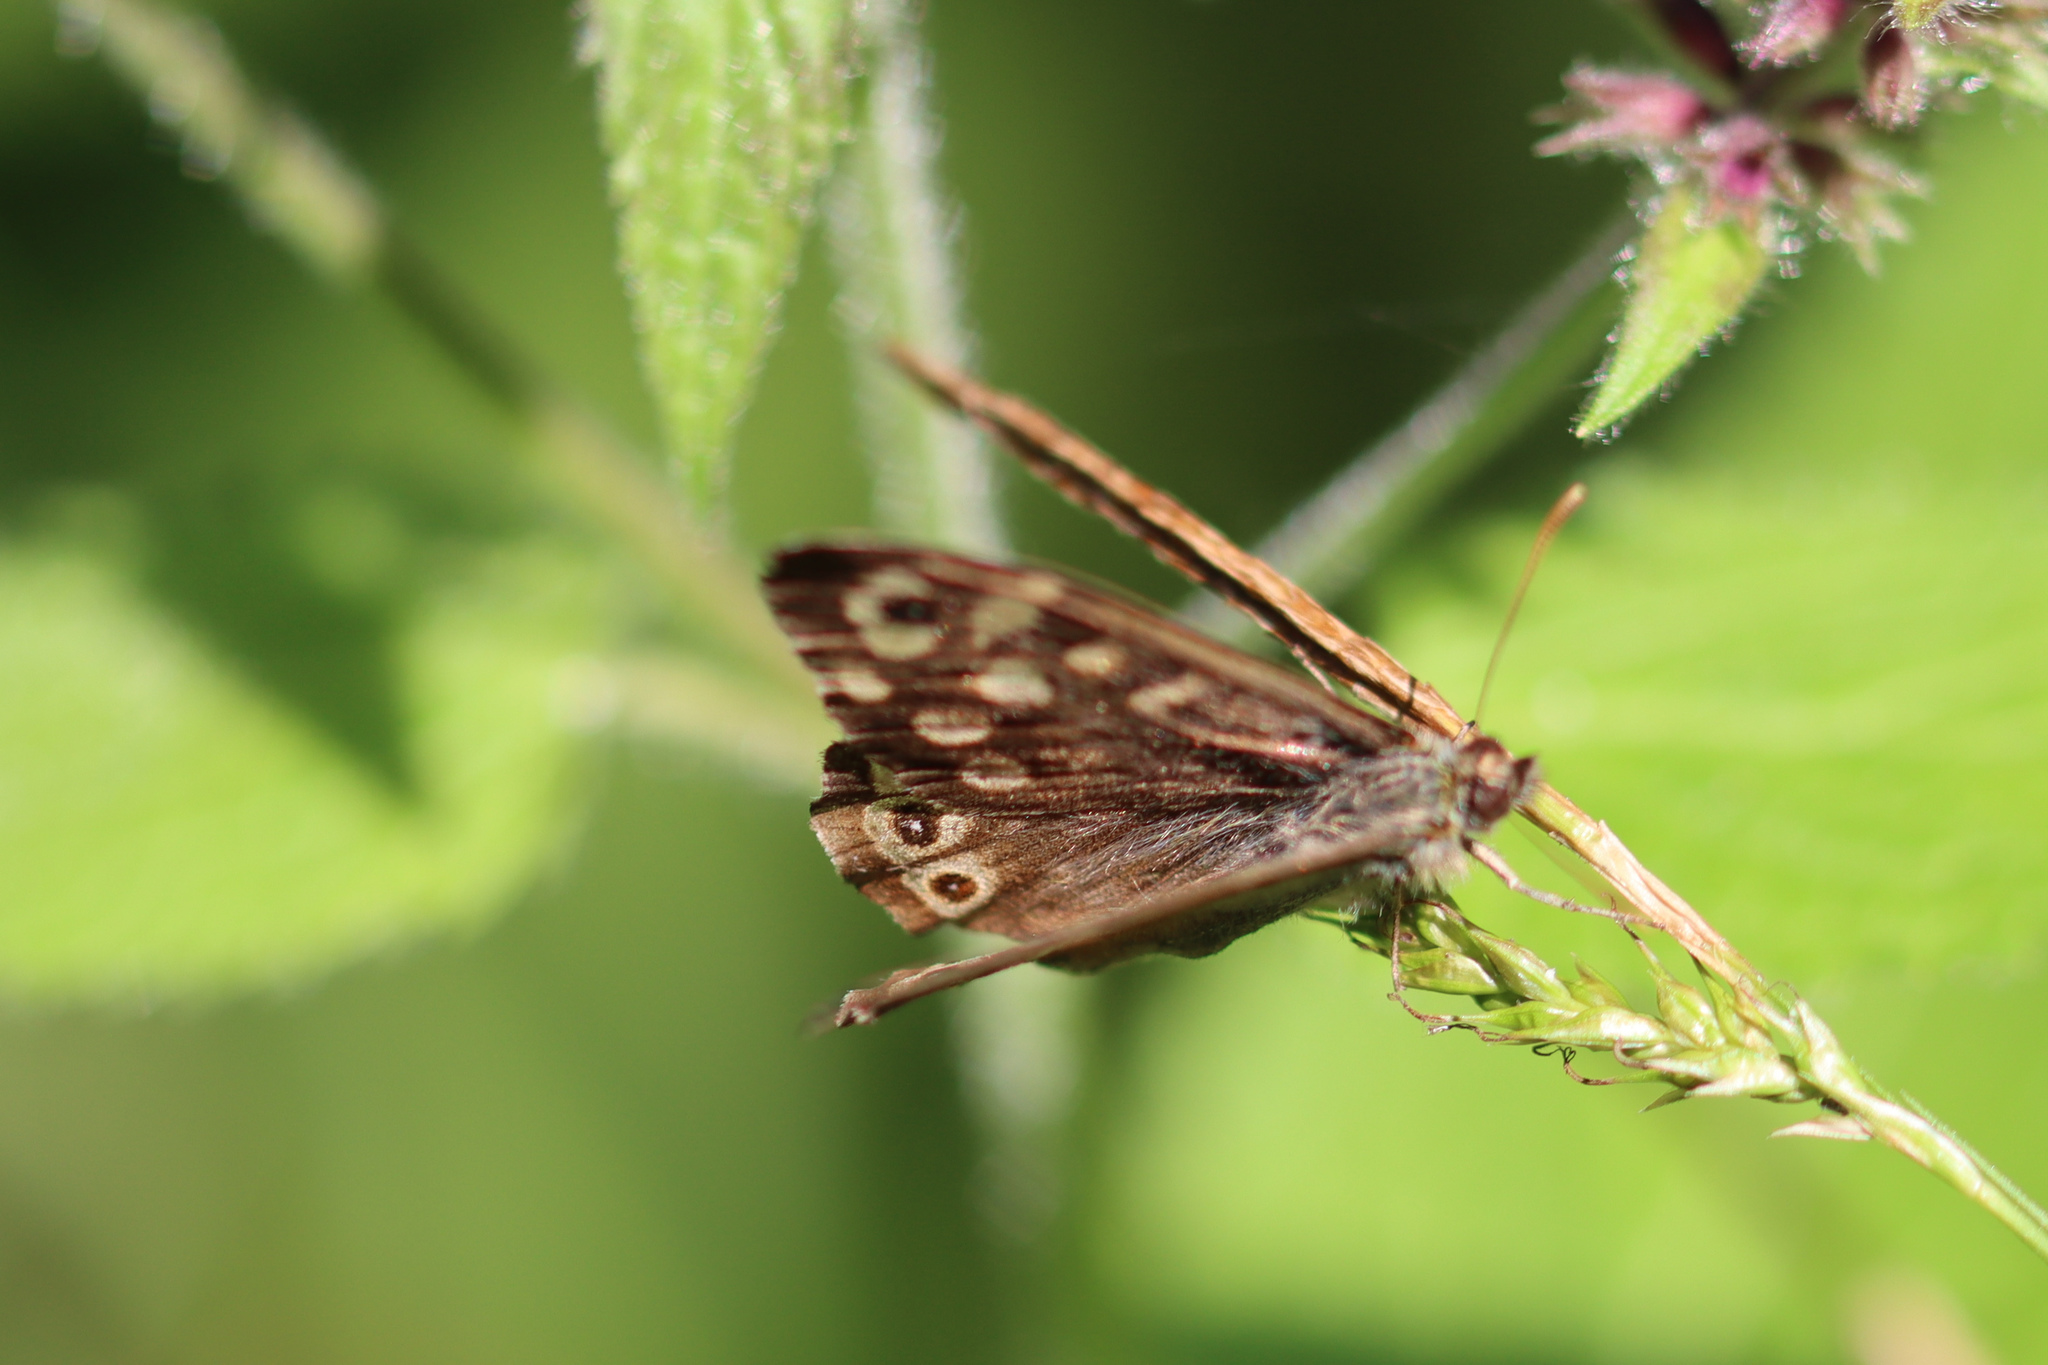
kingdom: Animalia
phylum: Arthropoda
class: Insecta
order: Lepidoptera
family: Nymphalidae
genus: Pararge
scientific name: Pararge aegeria
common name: Speckled wood
